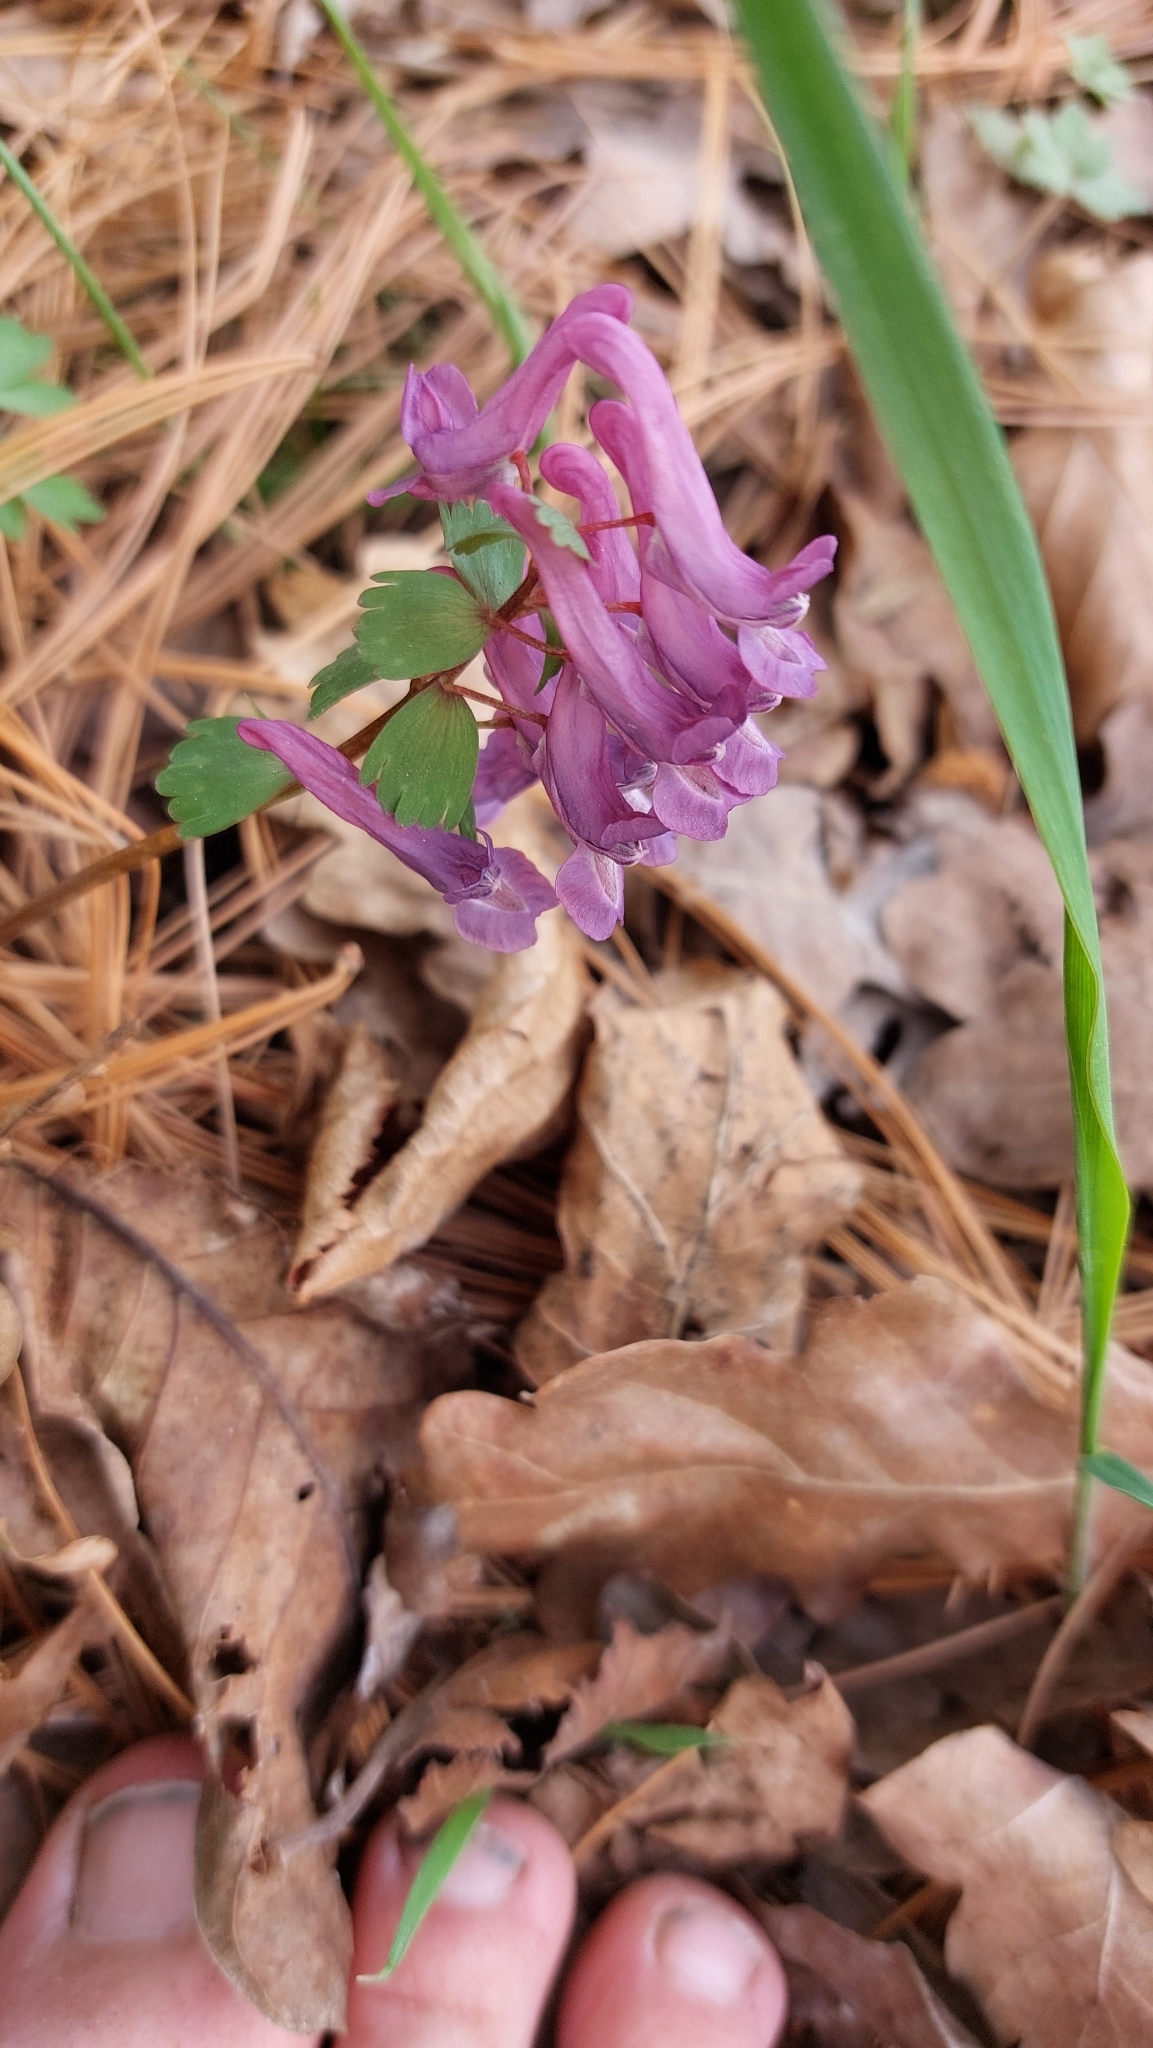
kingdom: Plantae
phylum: Tracheophyta
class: Magnoliopsida
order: Ranunculales
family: Papaveraceae
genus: Corydalis
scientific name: Corydalis solida
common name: Bird-in-a-bush
